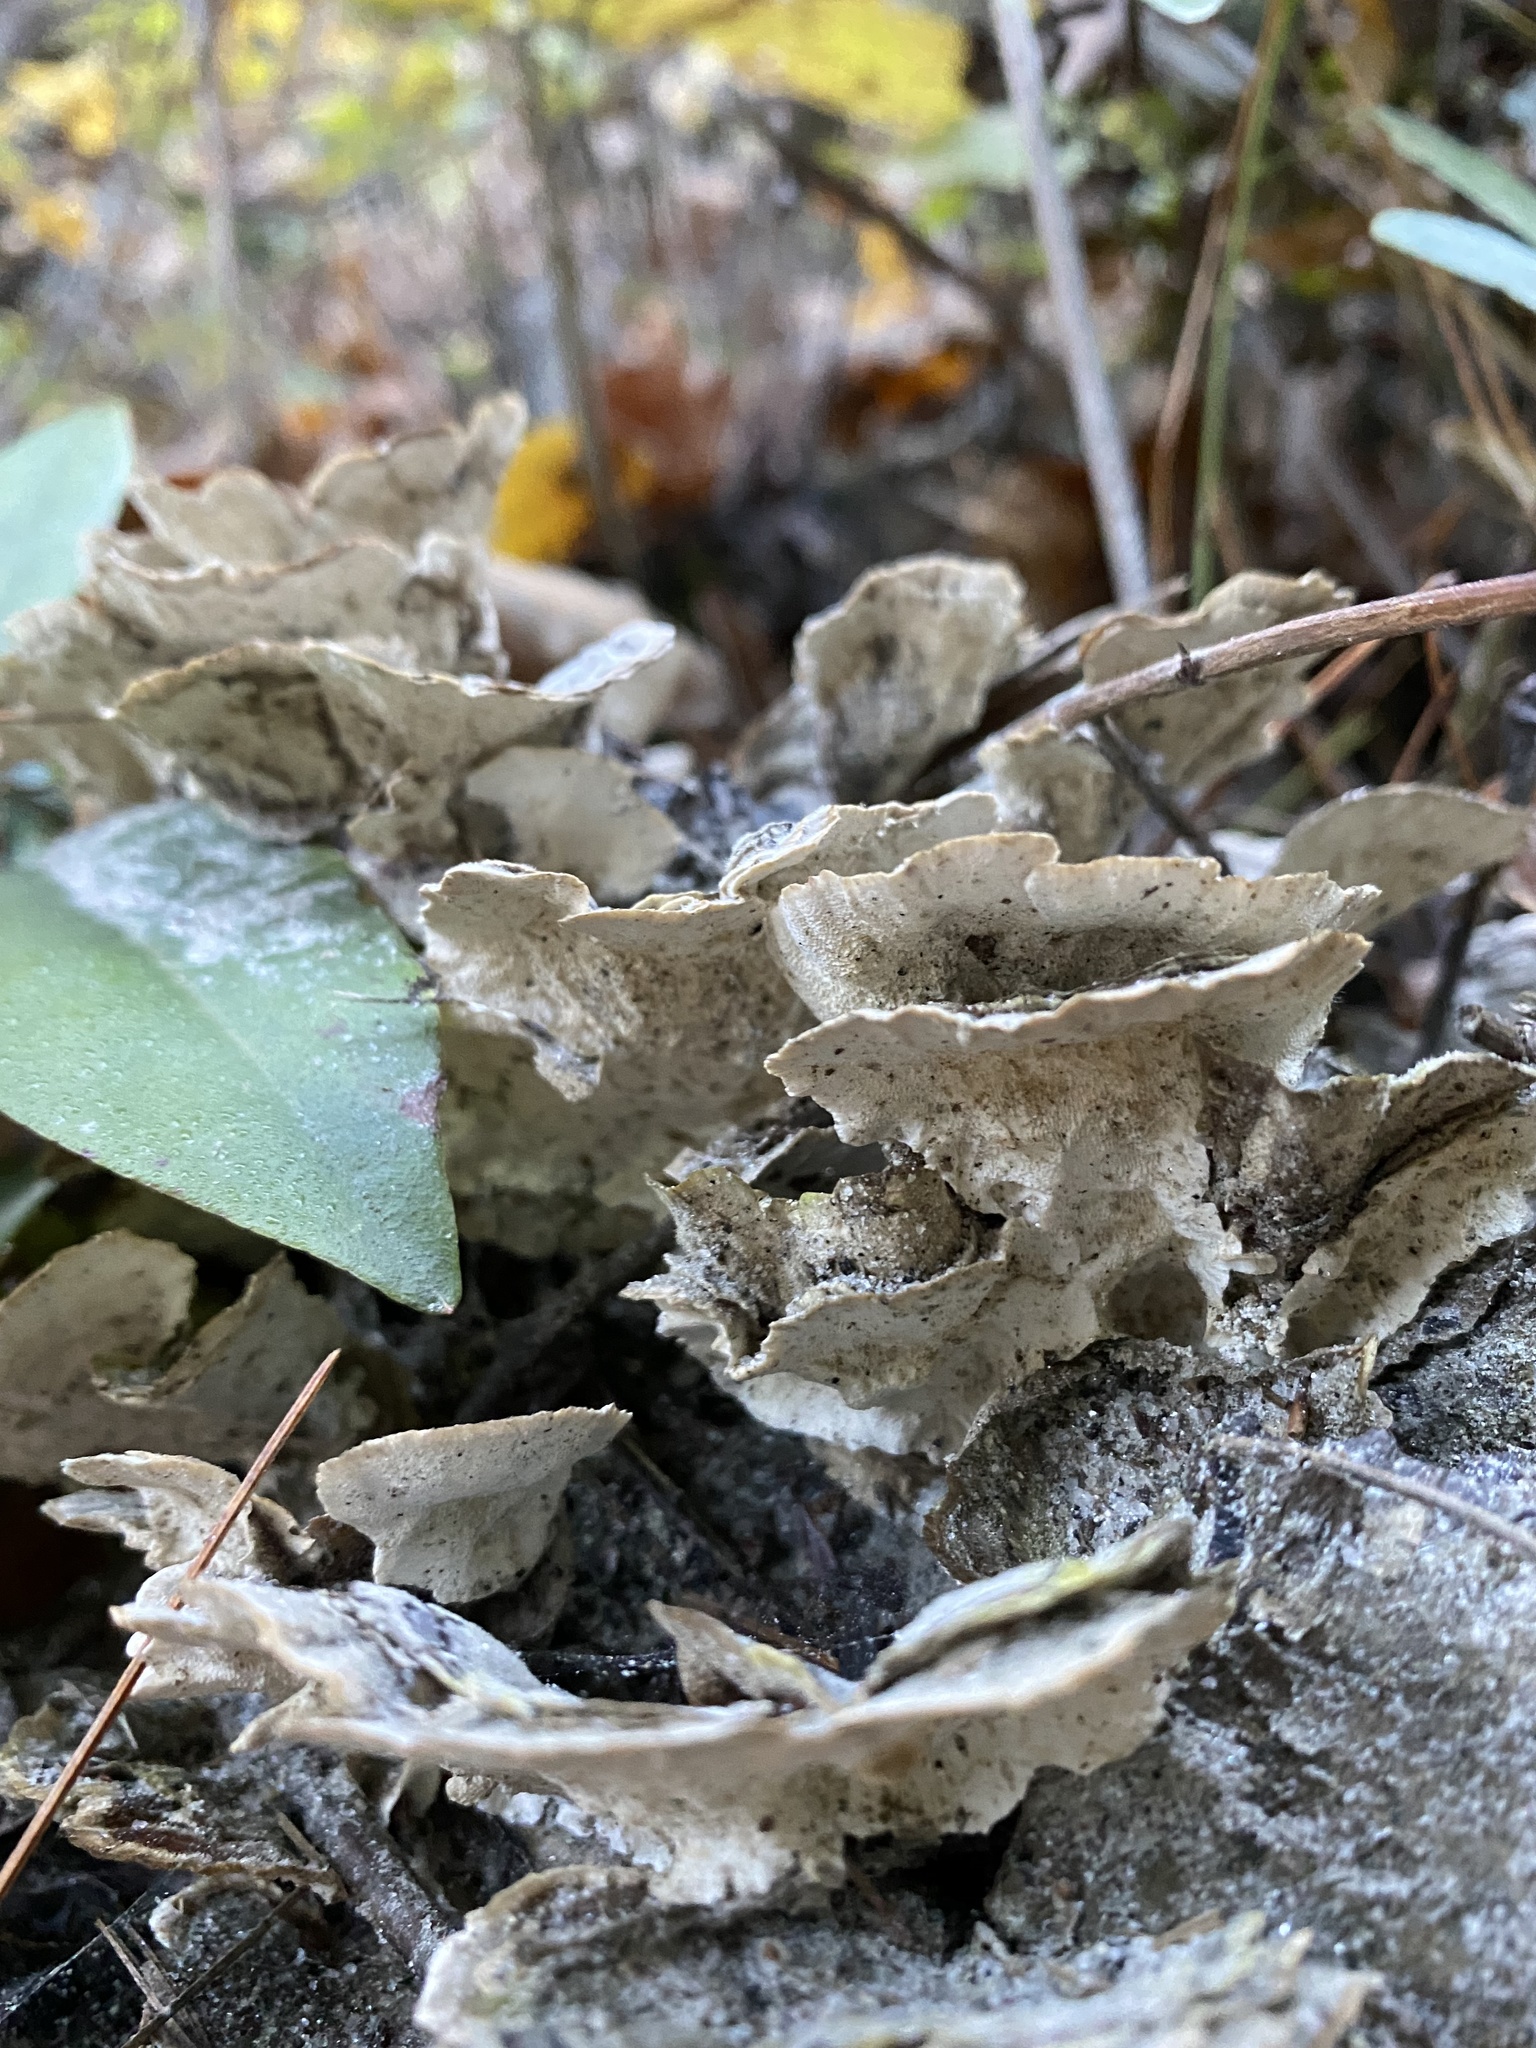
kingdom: Fungi
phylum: Basidiomycota
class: Agaricomycetes
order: Polyporales
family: Polyporaceae
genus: Trametes
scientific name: Trametes versicolor
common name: Turkeytail
